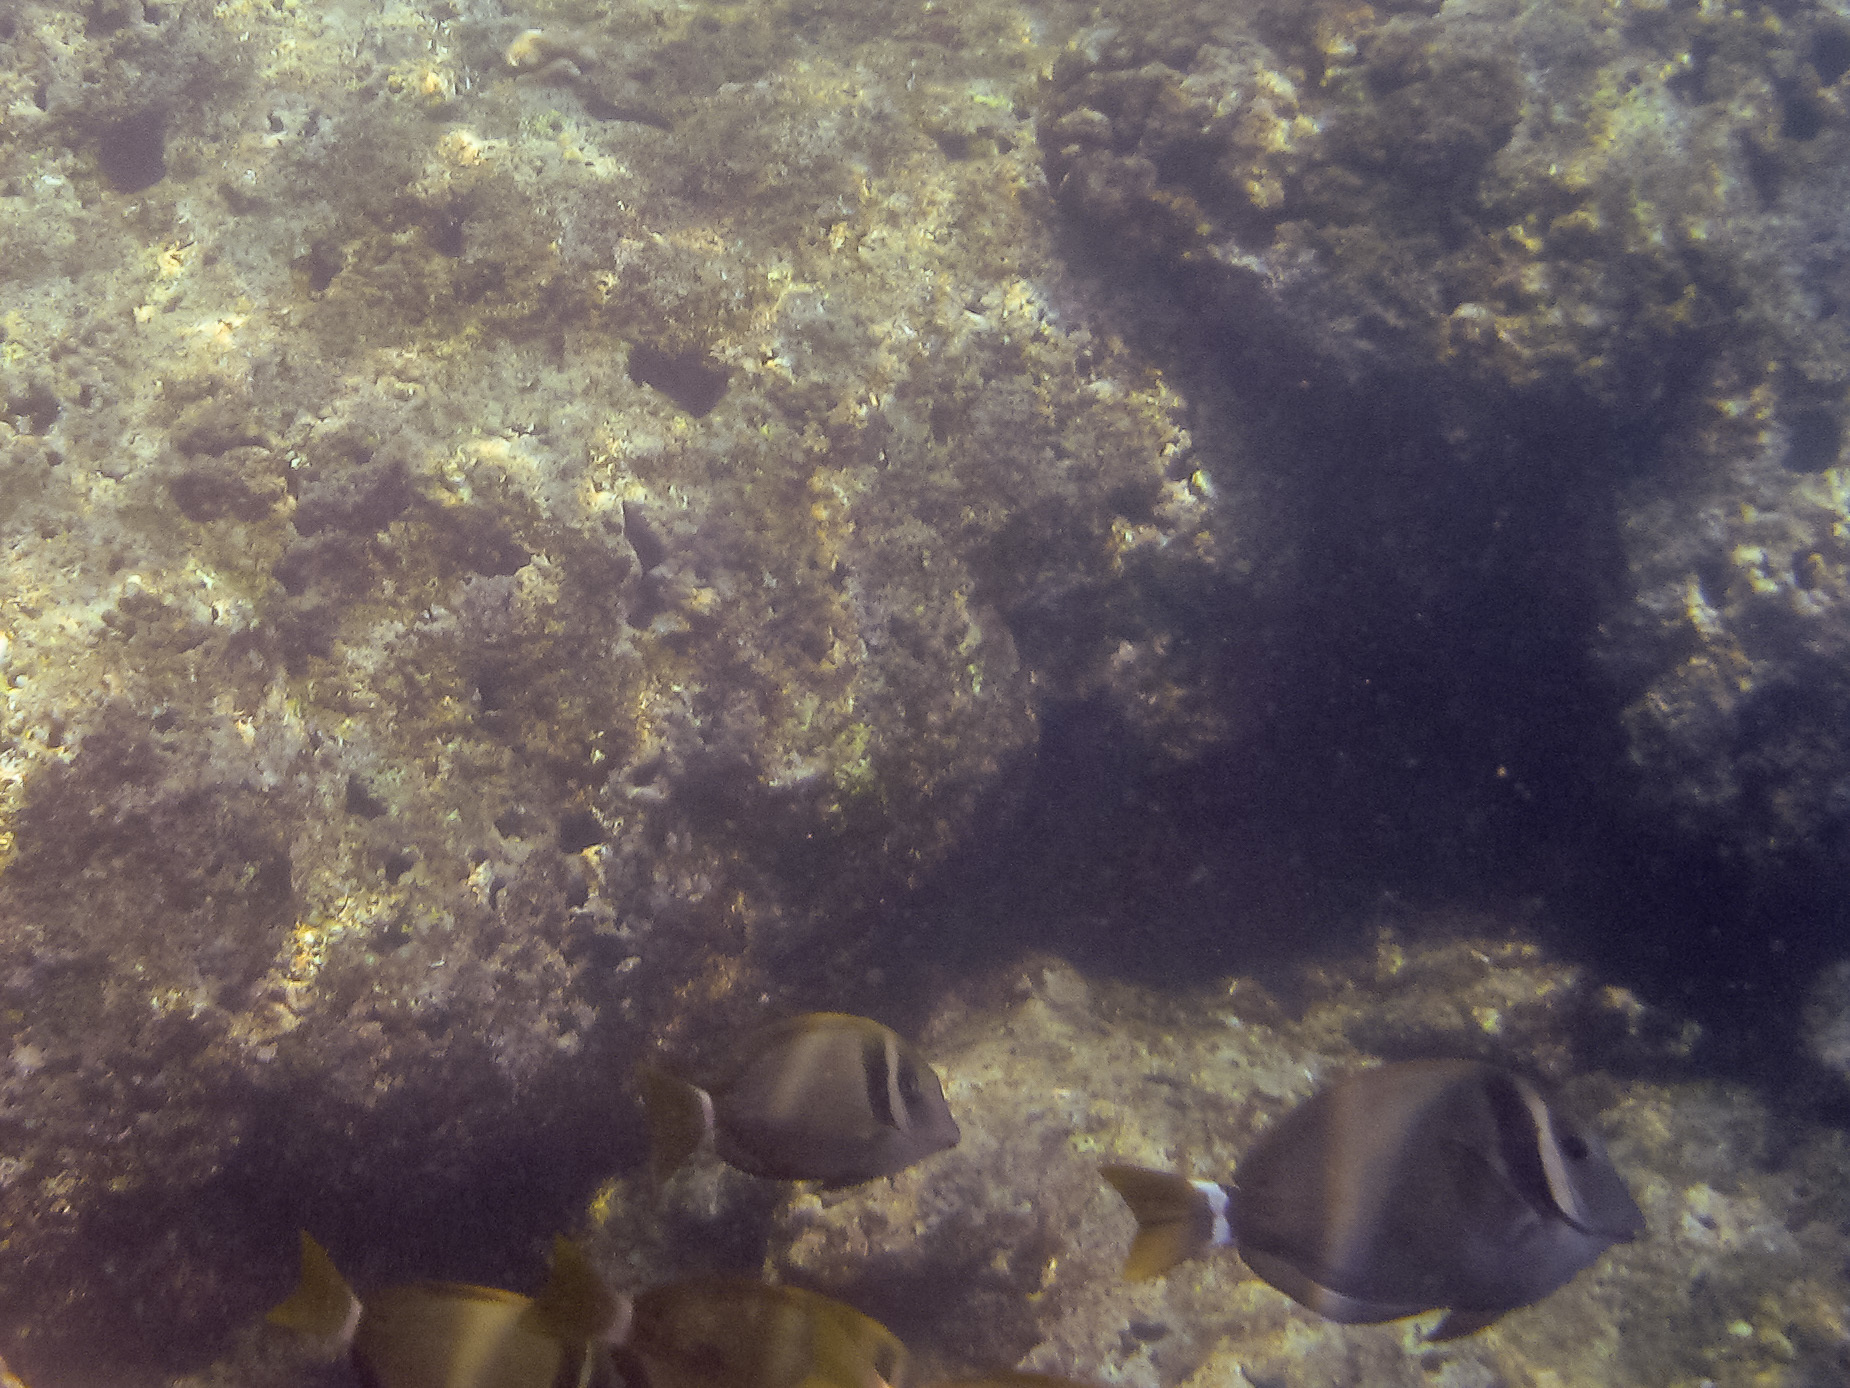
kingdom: Animalia
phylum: Chordata
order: Perciformes
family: Acanthuridae
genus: Acanthurus
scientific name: Acanthurus leucopareius
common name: Head-band surgeonfish
